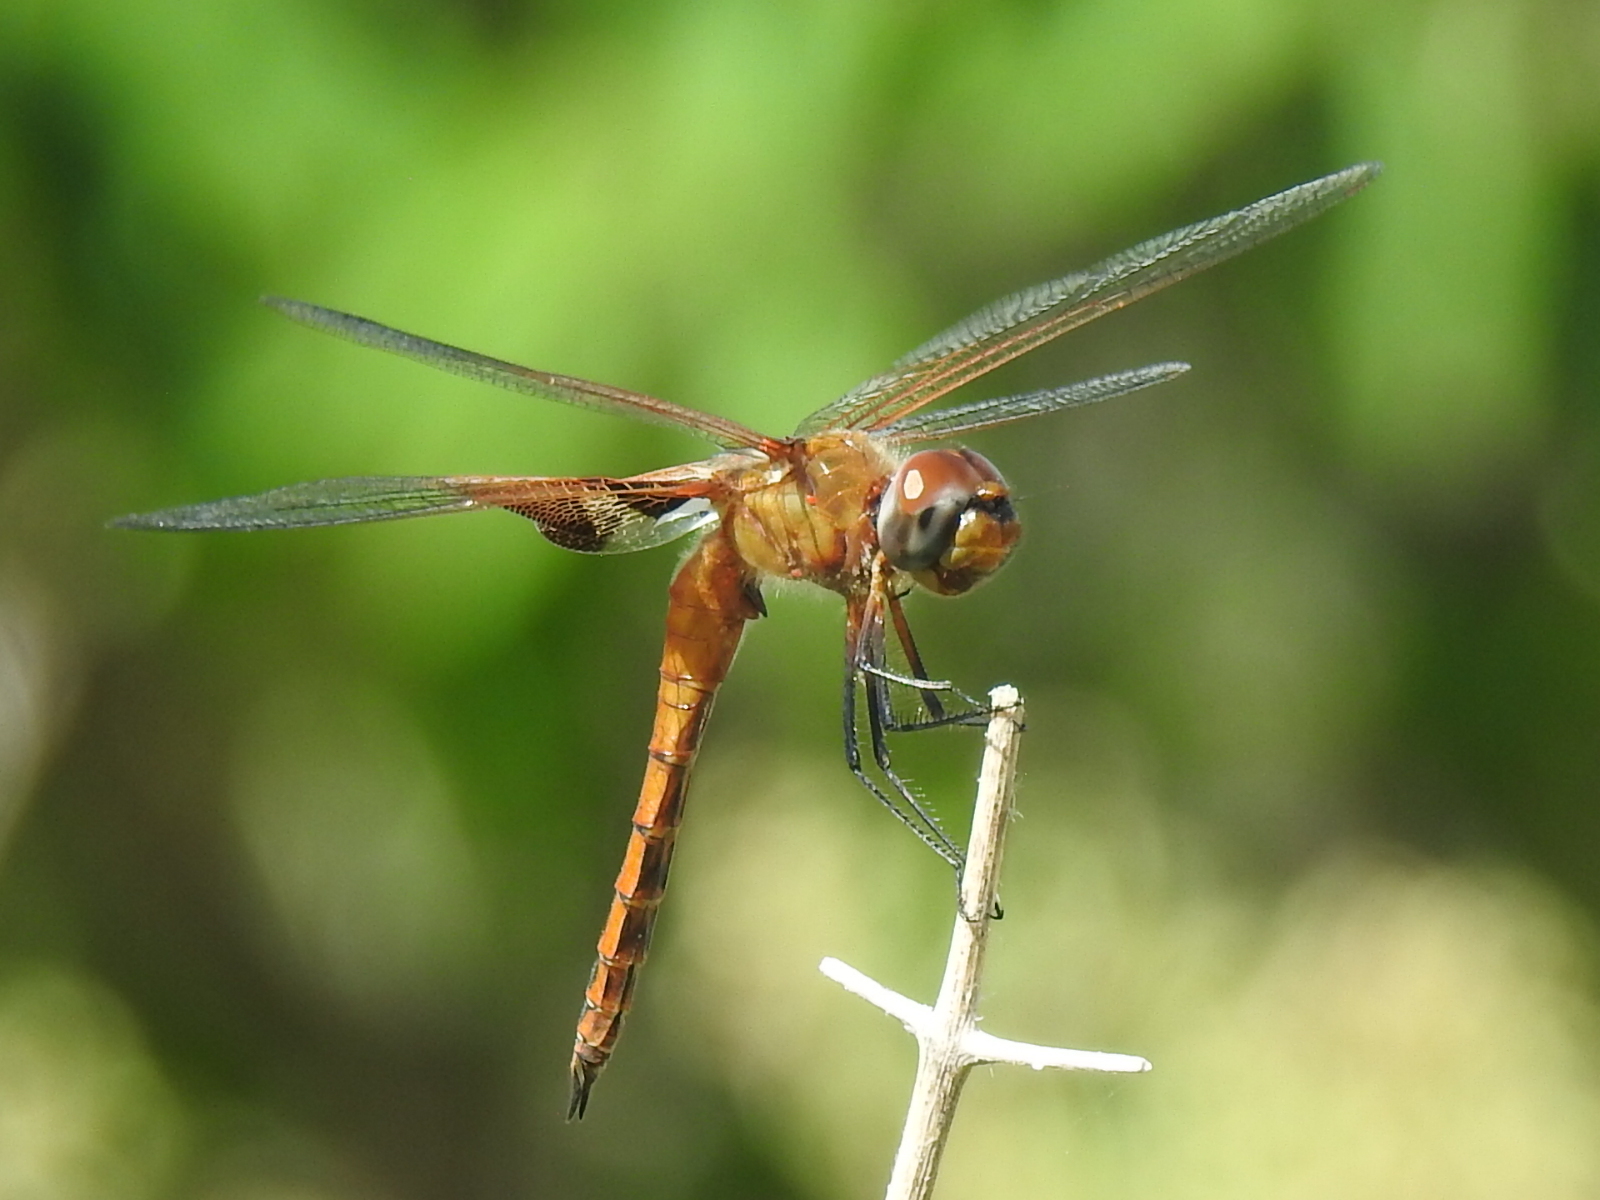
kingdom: Animalia
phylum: Arthropoda
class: Insecta
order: Odonata
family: Libellulidae
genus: Tramea
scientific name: Tramea onusta
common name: Red saddlebags
